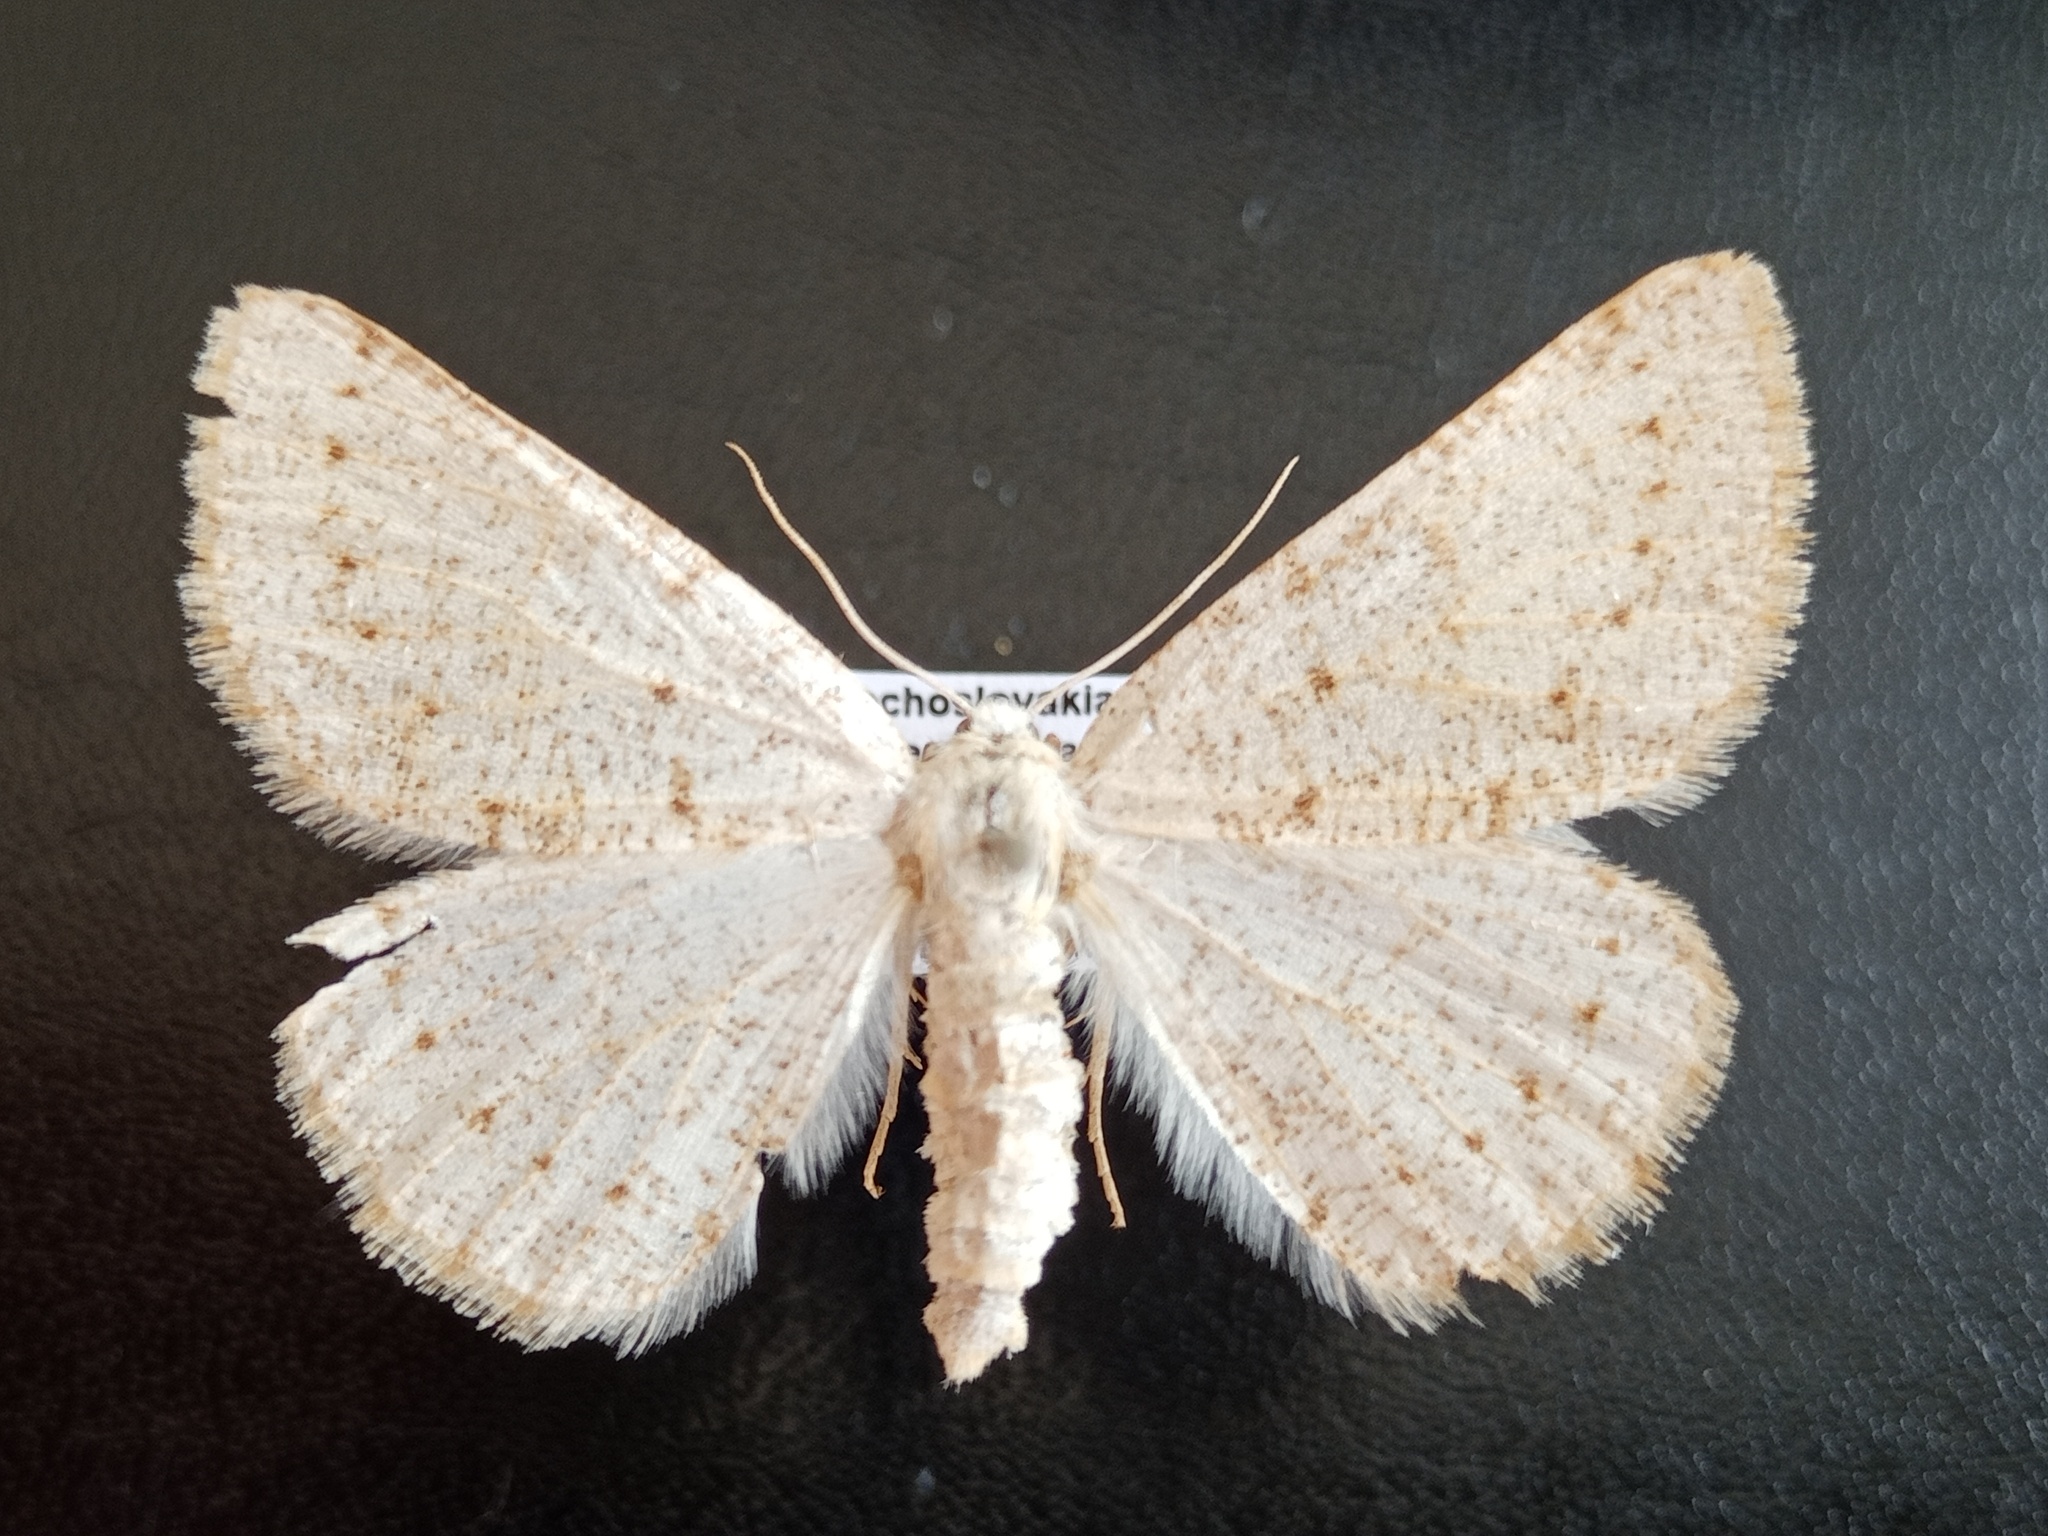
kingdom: Animalia
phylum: Arthropoda
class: Insecta
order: Lepidoptera
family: Geometridae
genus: Dyscia
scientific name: Dyscia conspersaria
